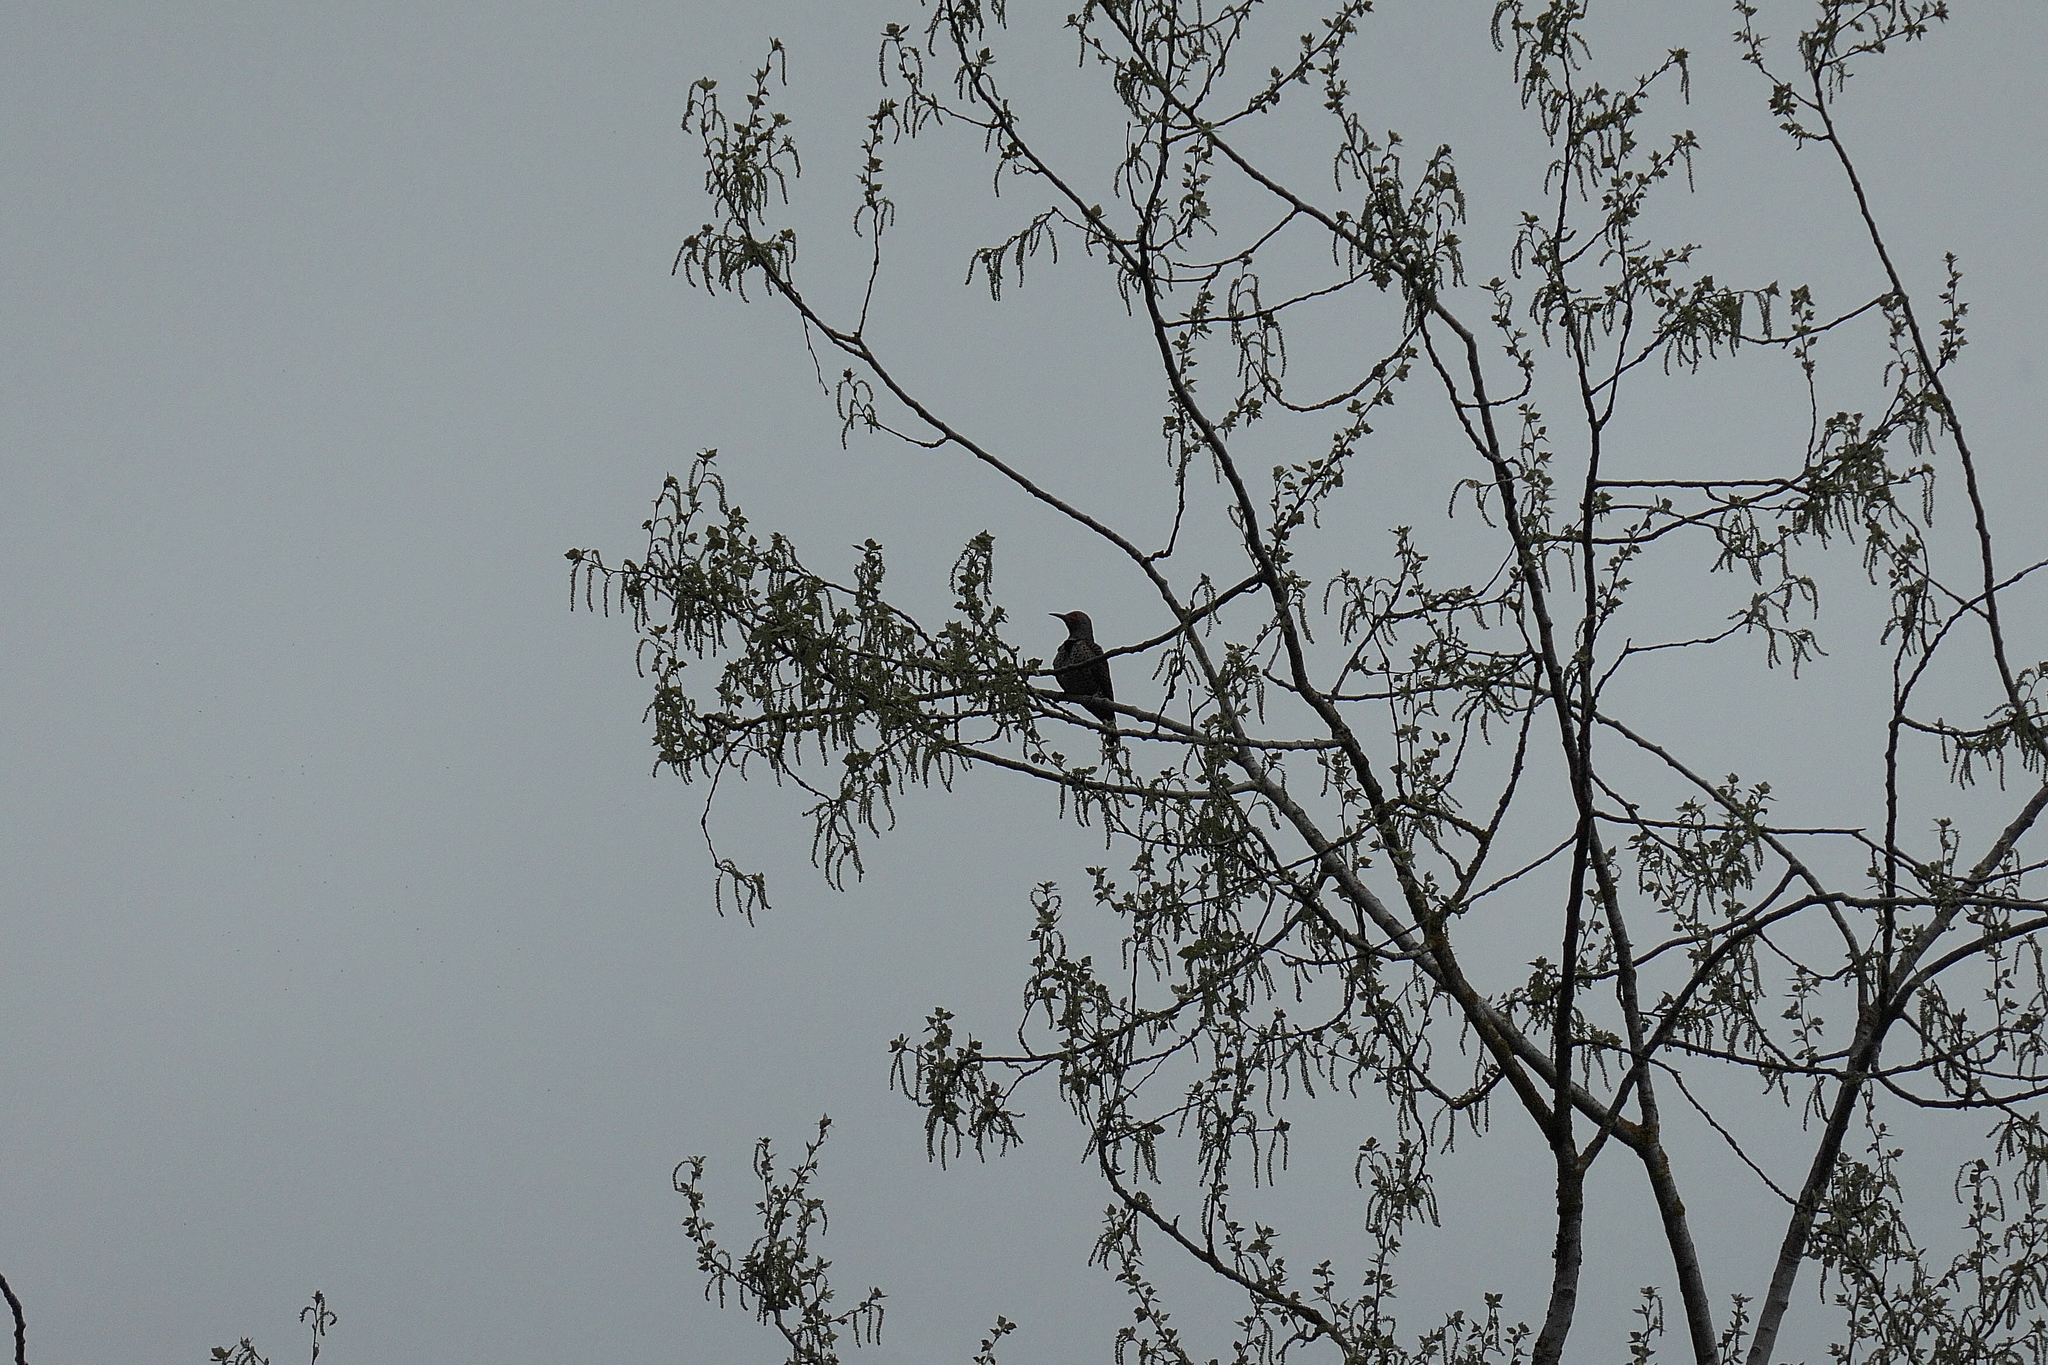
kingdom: Animalia
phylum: Chordata
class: Aves
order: Piciformes
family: Picidae
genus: Colaptes
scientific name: Colaptes auratus
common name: Northern flicker
